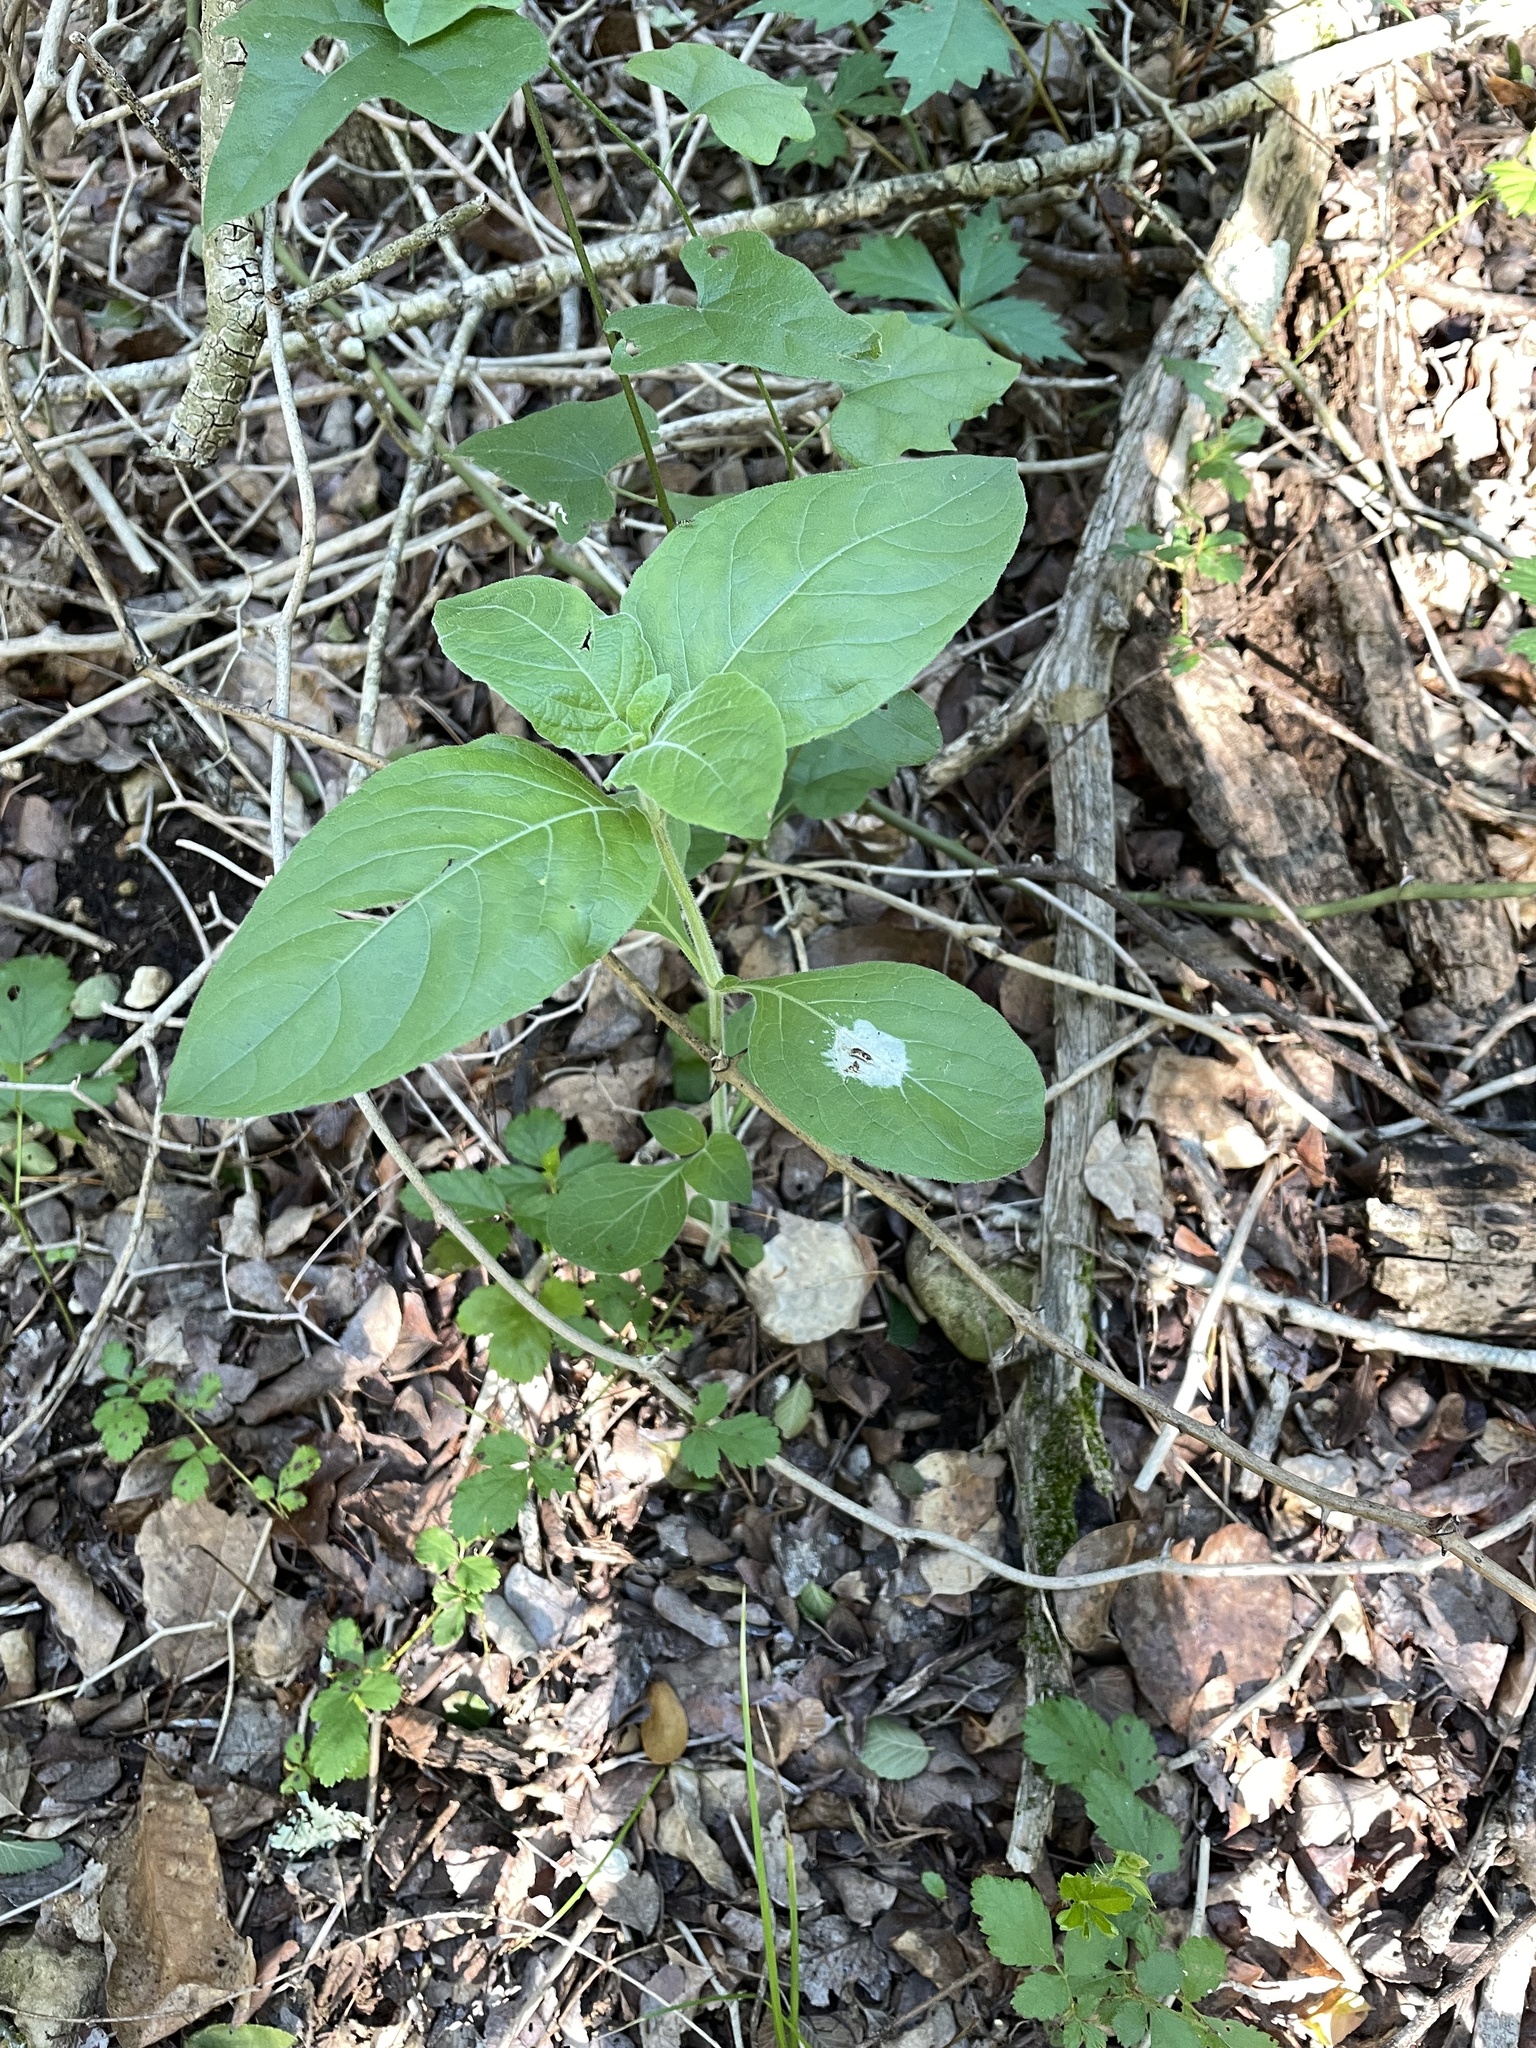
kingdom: Plantae
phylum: Tracheophyta
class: Magnoliopsida
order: Lamiales
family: Acanthaceae
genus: Ruellia
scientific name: Ruellia drummondiana
